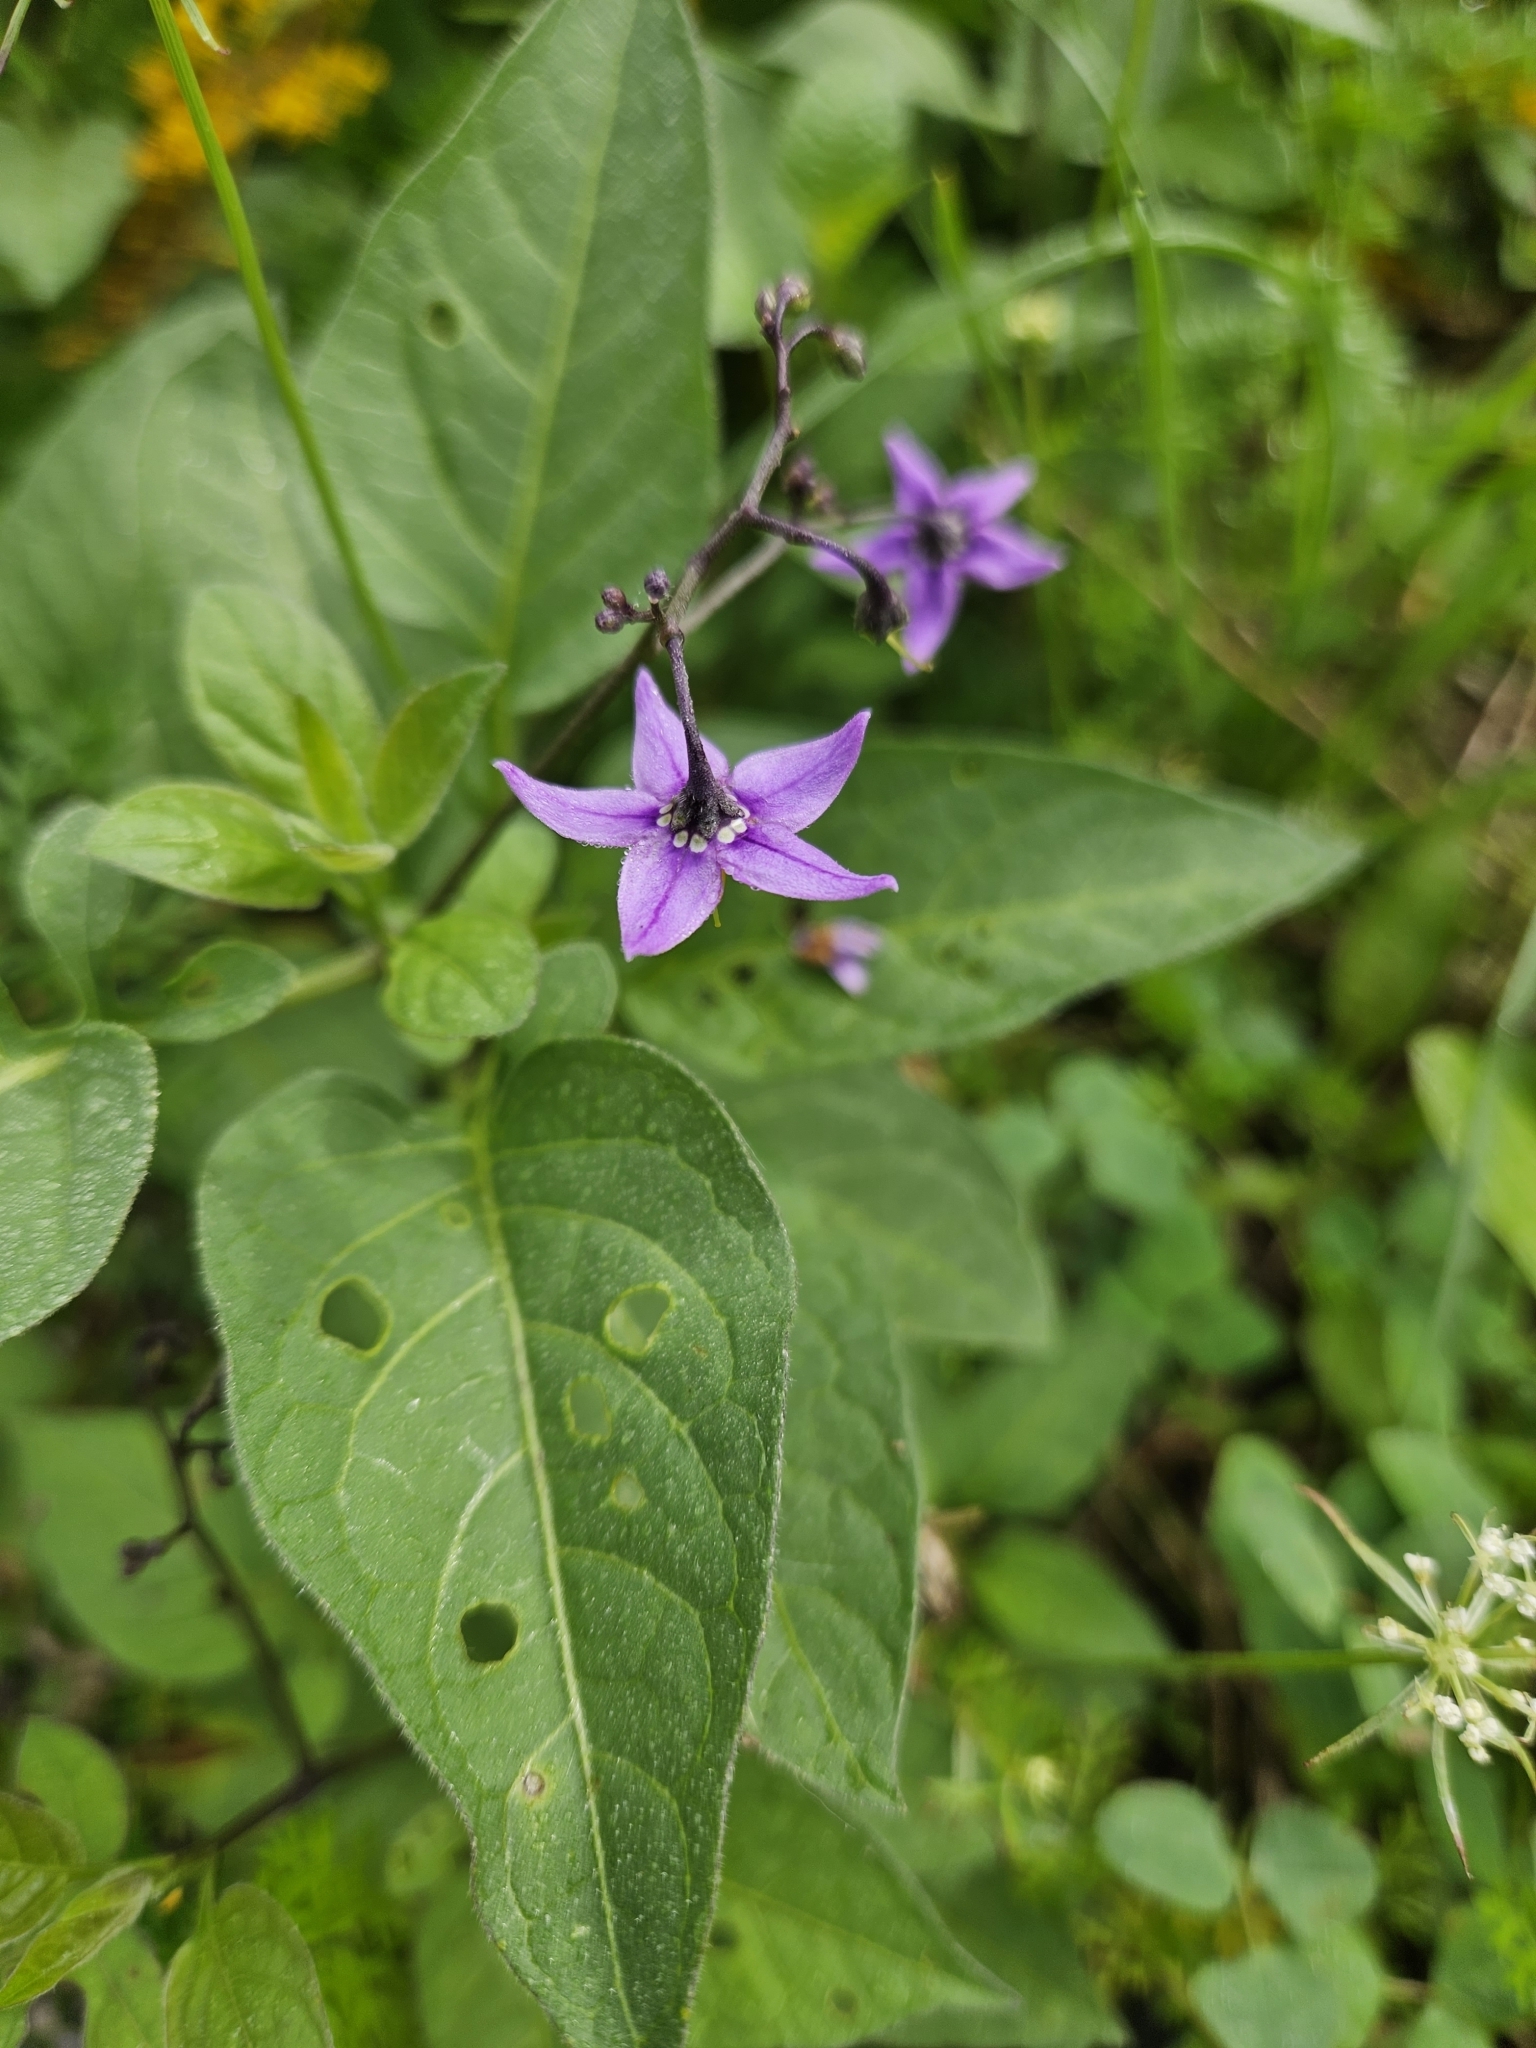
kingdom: Plantae
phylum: Tracheophyta
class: Magnoliopsida
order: Solanales
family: Solanaceae
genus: Solanum
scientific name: Solanum dulcamara
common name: Climbing nightshade
